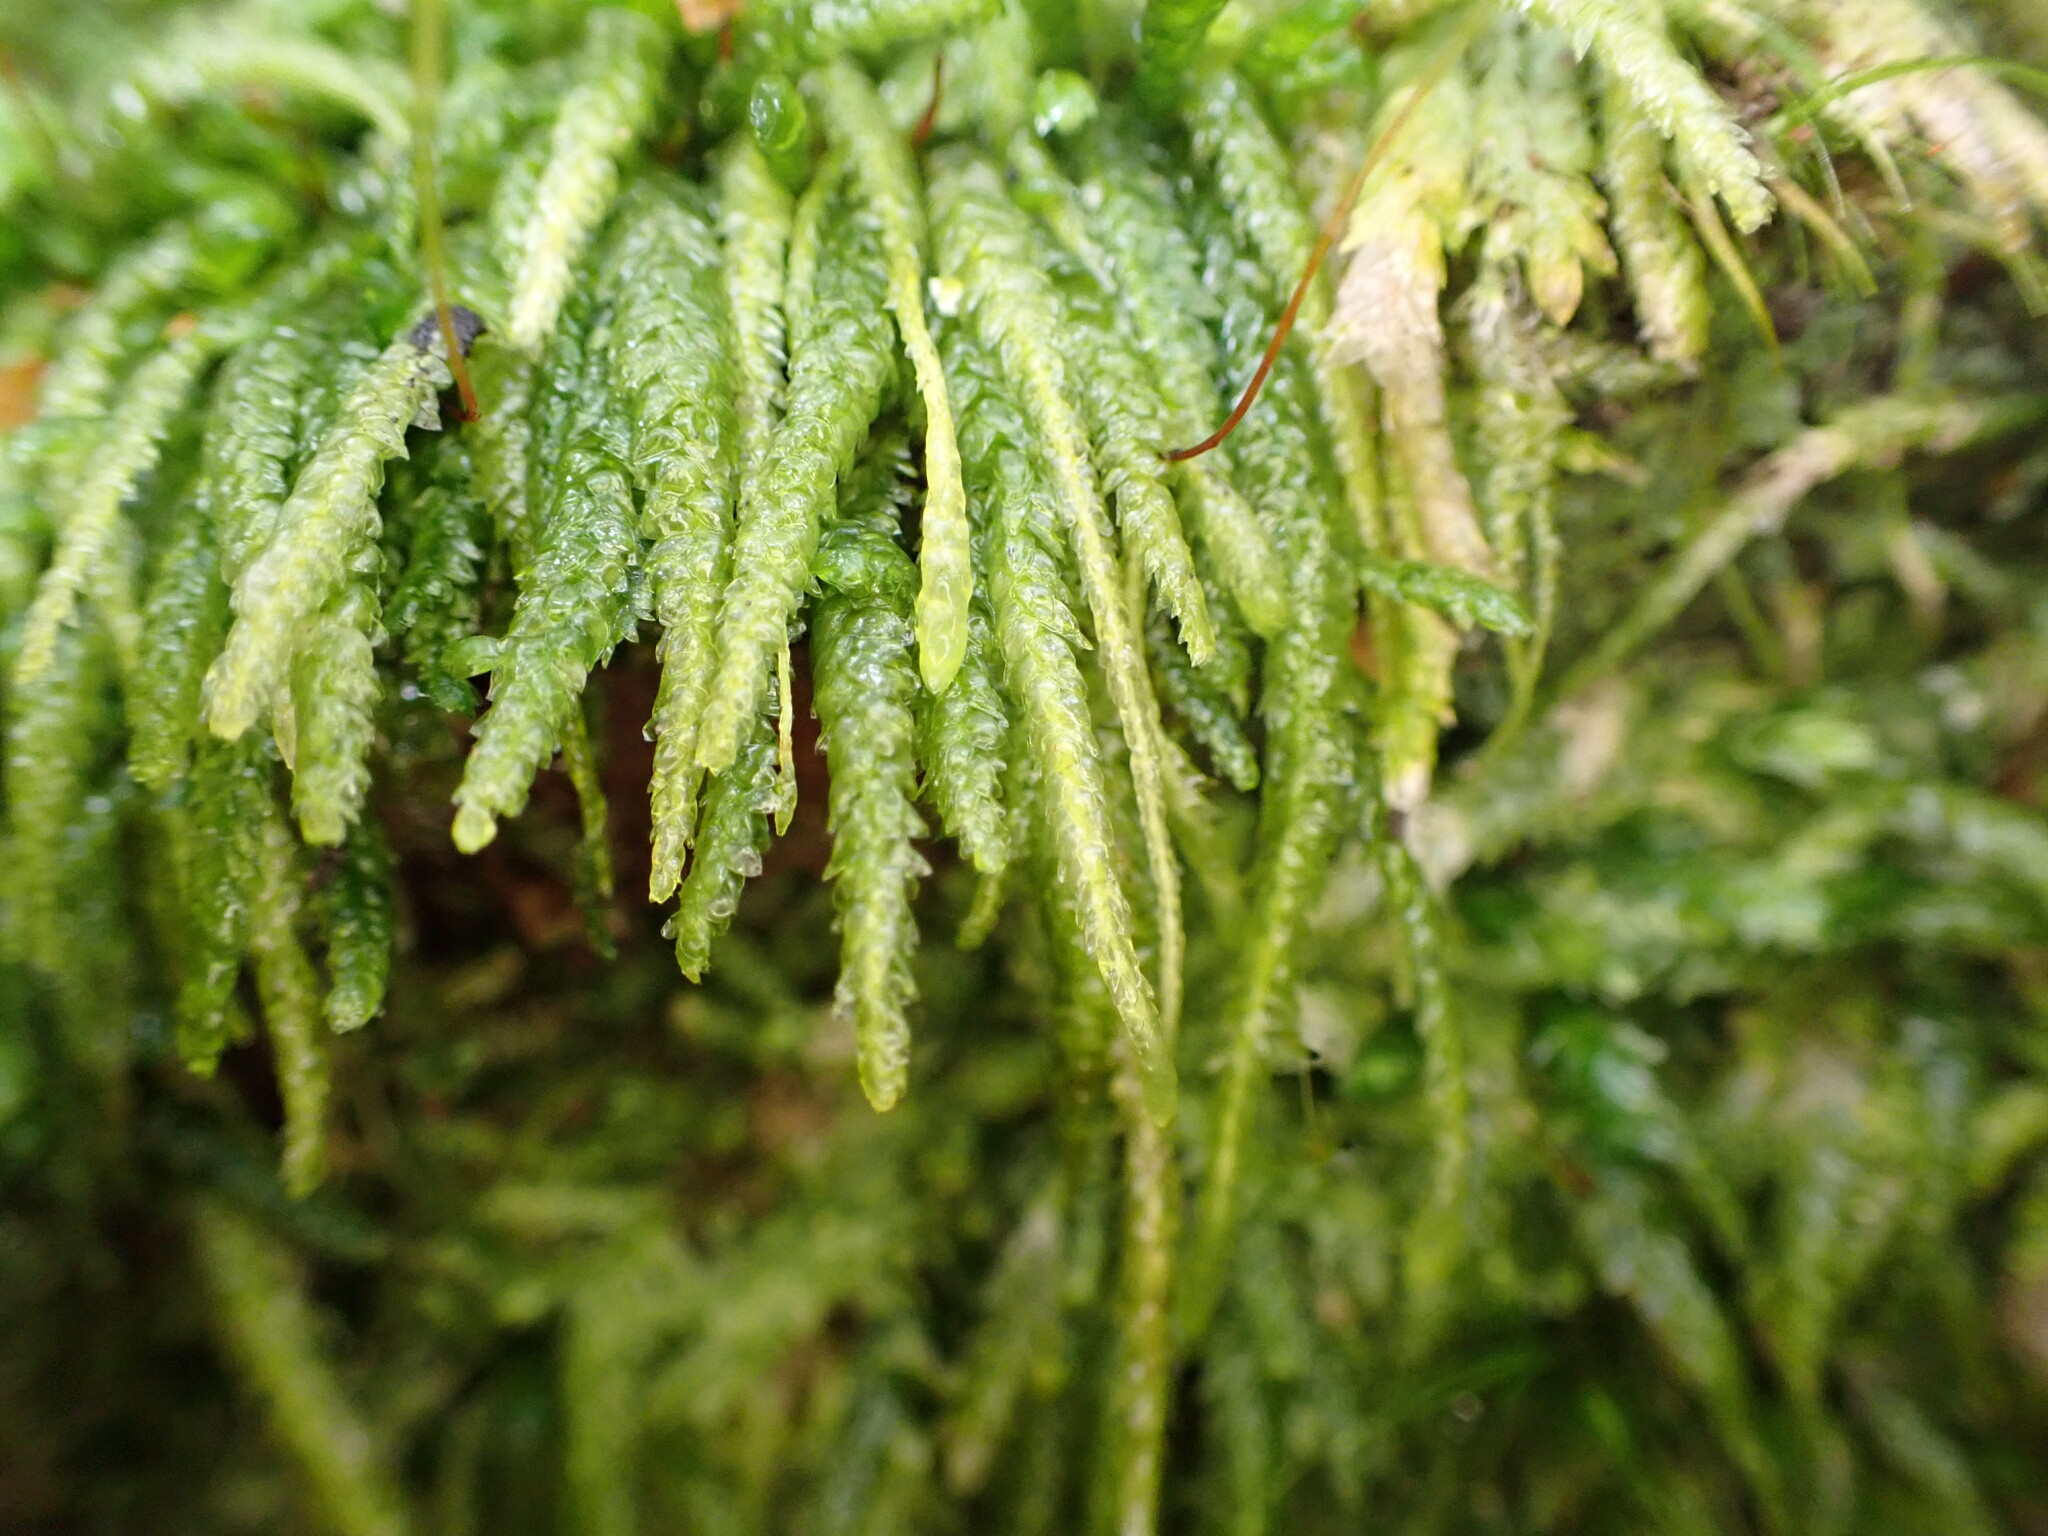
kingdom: Plantae
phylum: Bryophyta
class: Bryopsida
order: Hypnales
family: Acrocladiaceae
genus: Acrocladium
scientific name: Acrocladium chlamydophyllum
